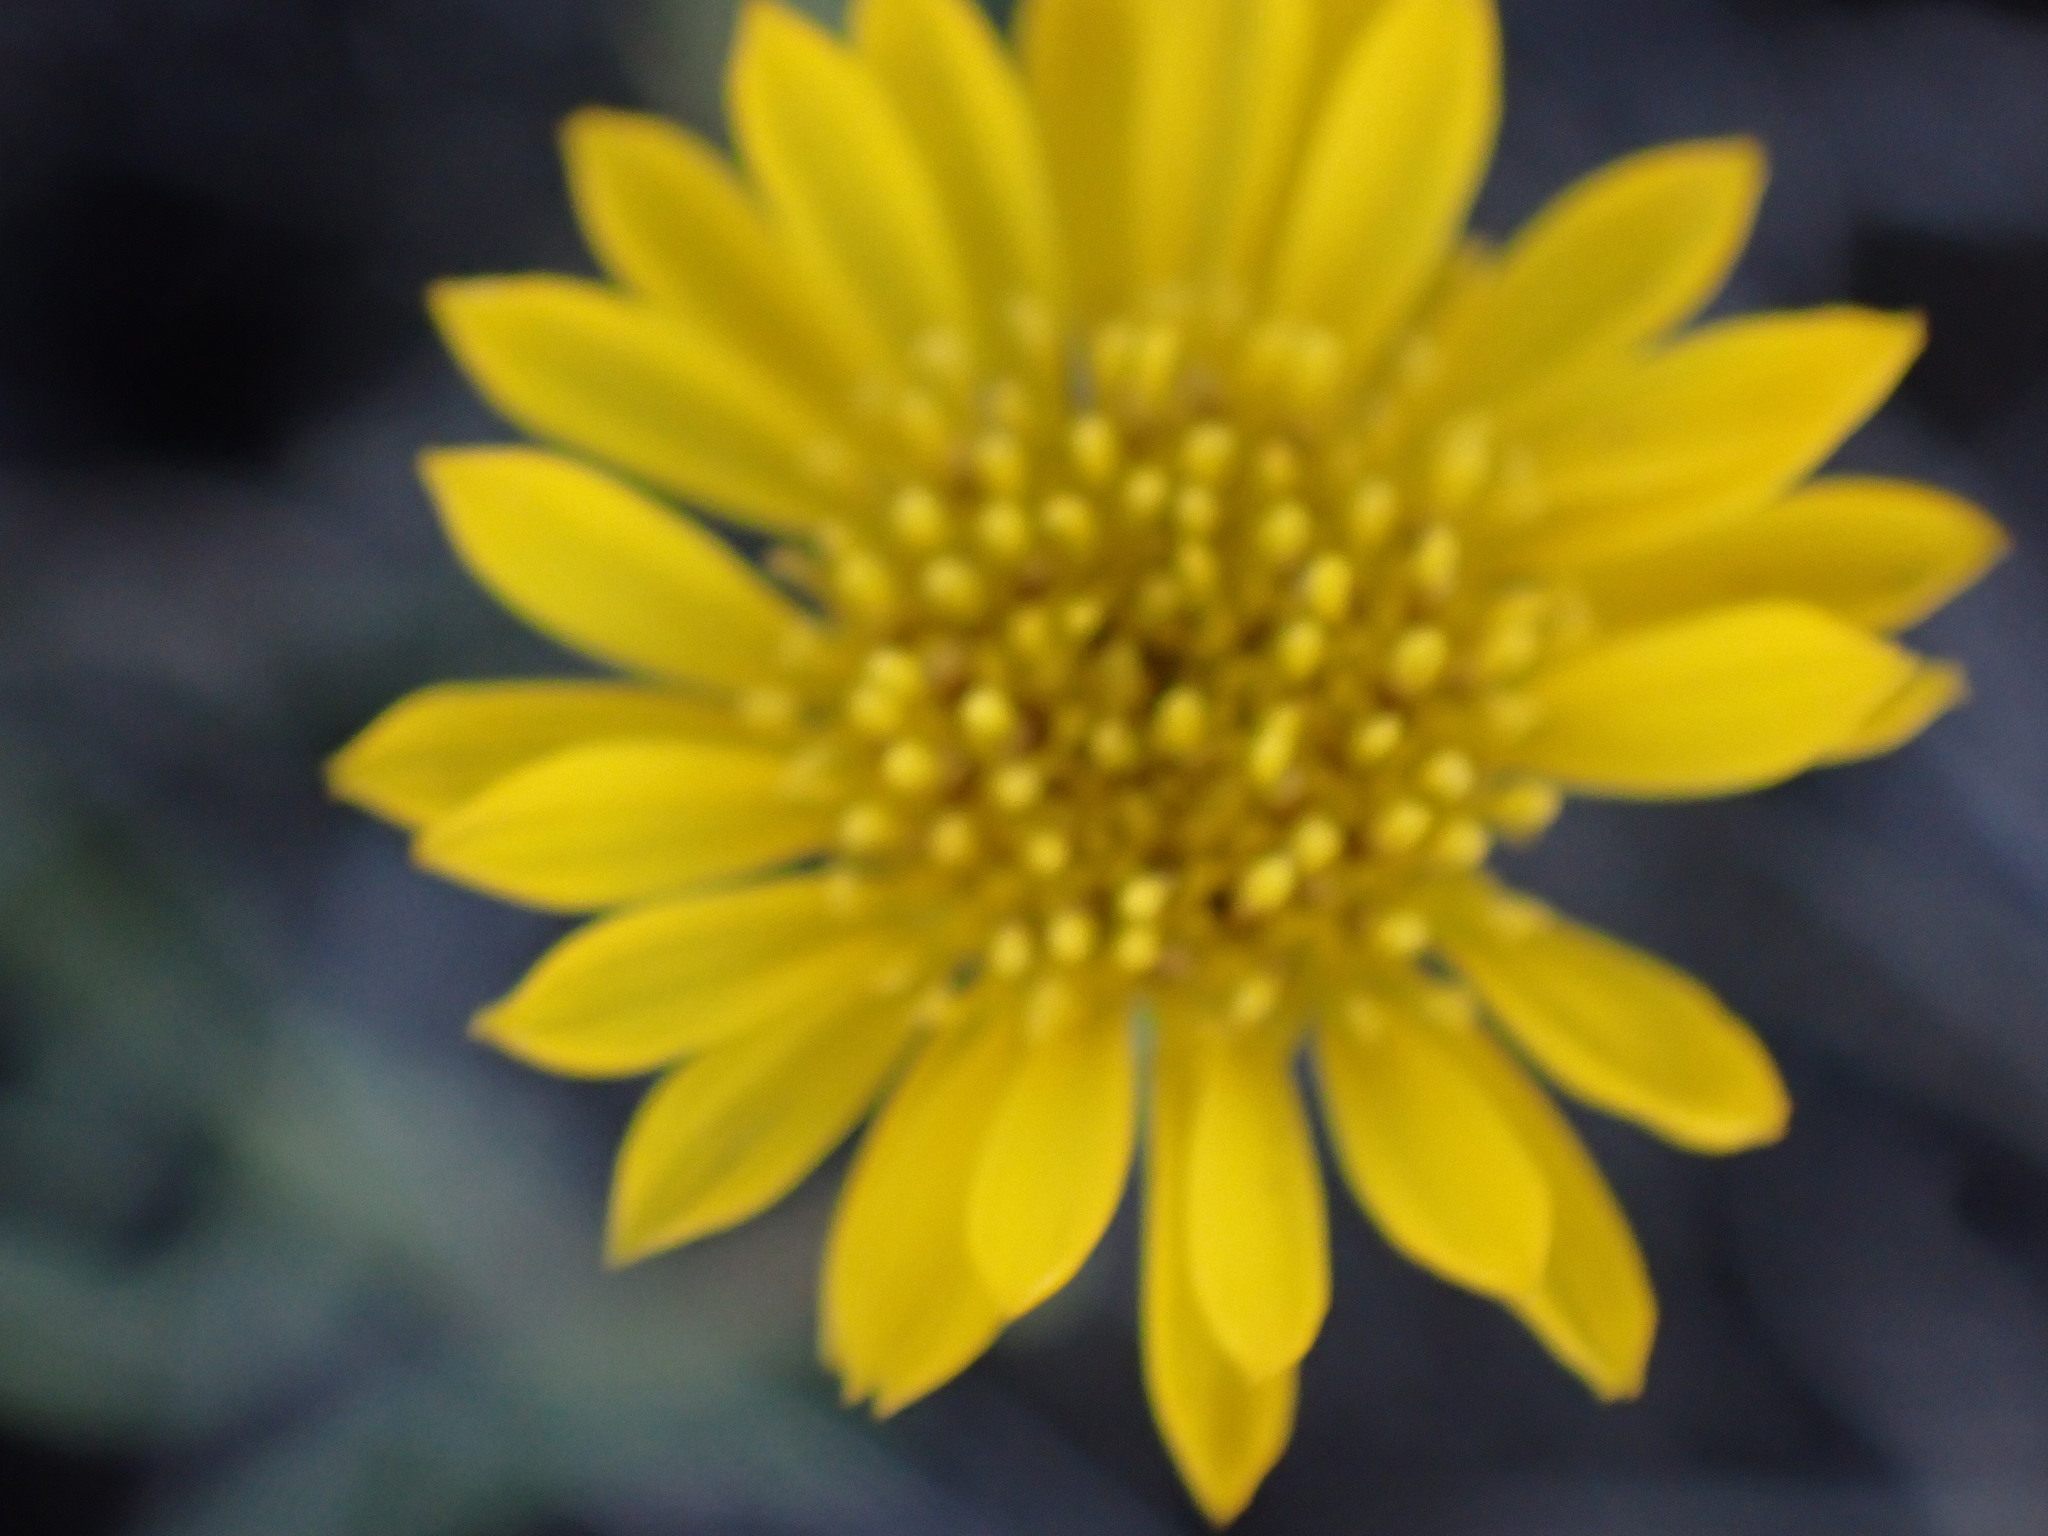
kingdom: Plantae
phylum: Tracheophyta
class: Magnoliopsida
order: Asterales
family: Asteraceae
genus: Erigeron
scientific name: Erigeron linearis
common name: Desert yellow fleabane
